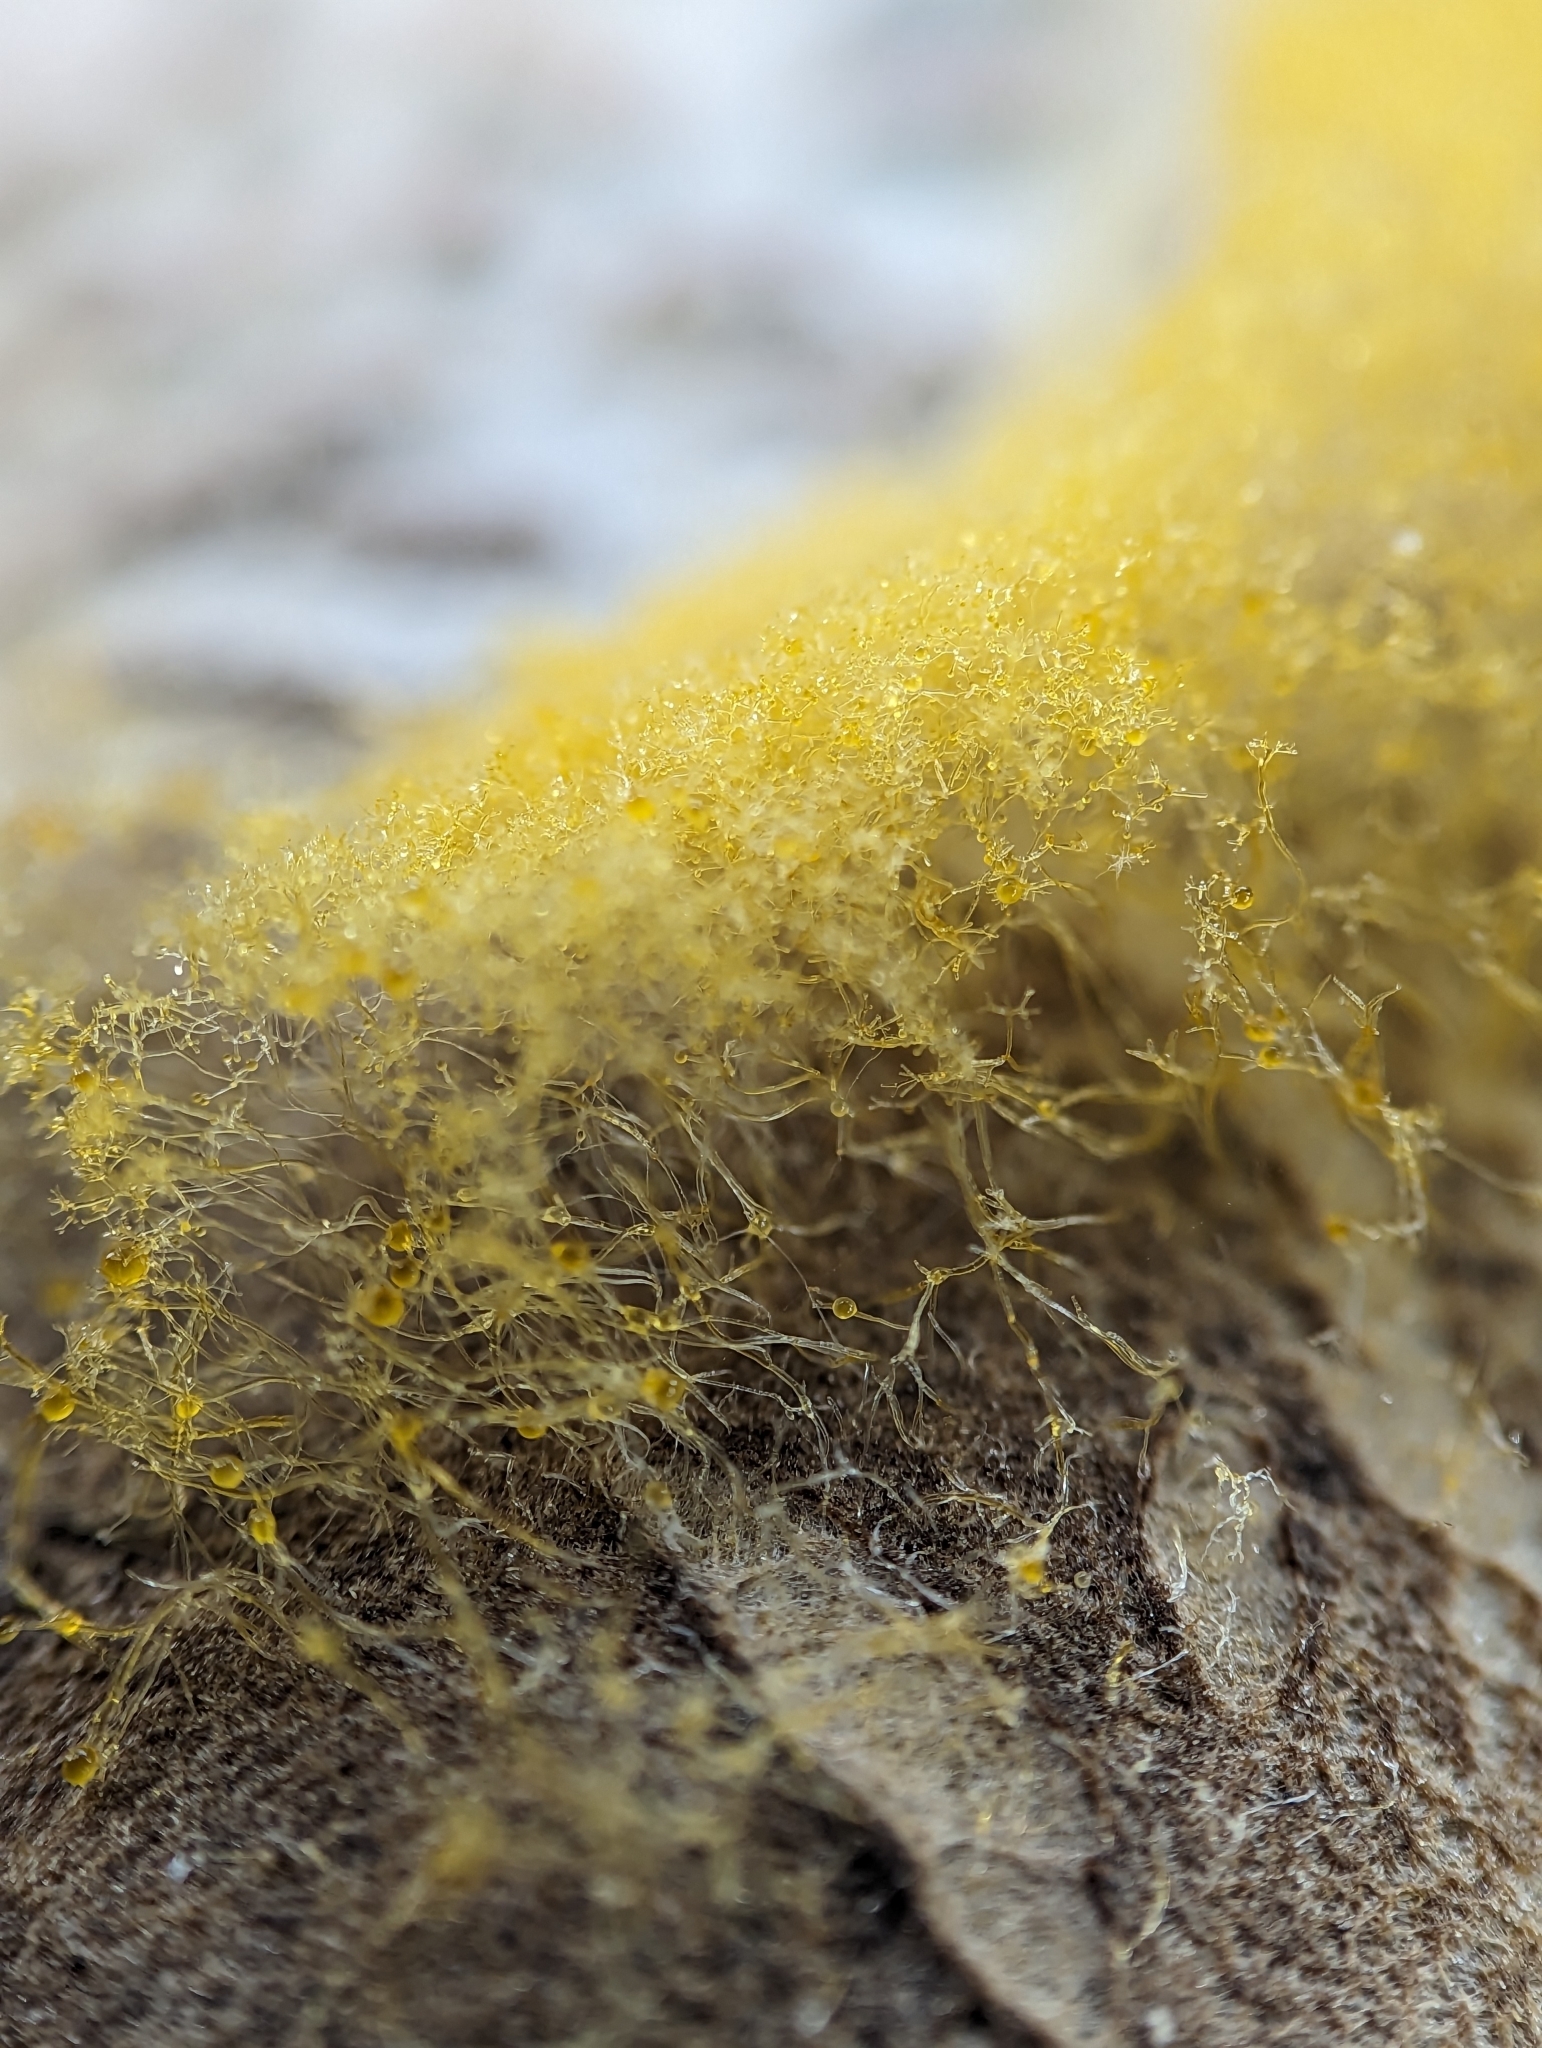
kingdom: Fungi
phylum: Mucoromycota
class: Mucoromycetes
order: Mucorales
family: Rhizopodaceae
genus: Syzygites
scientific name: Syzygites megalocarpus
